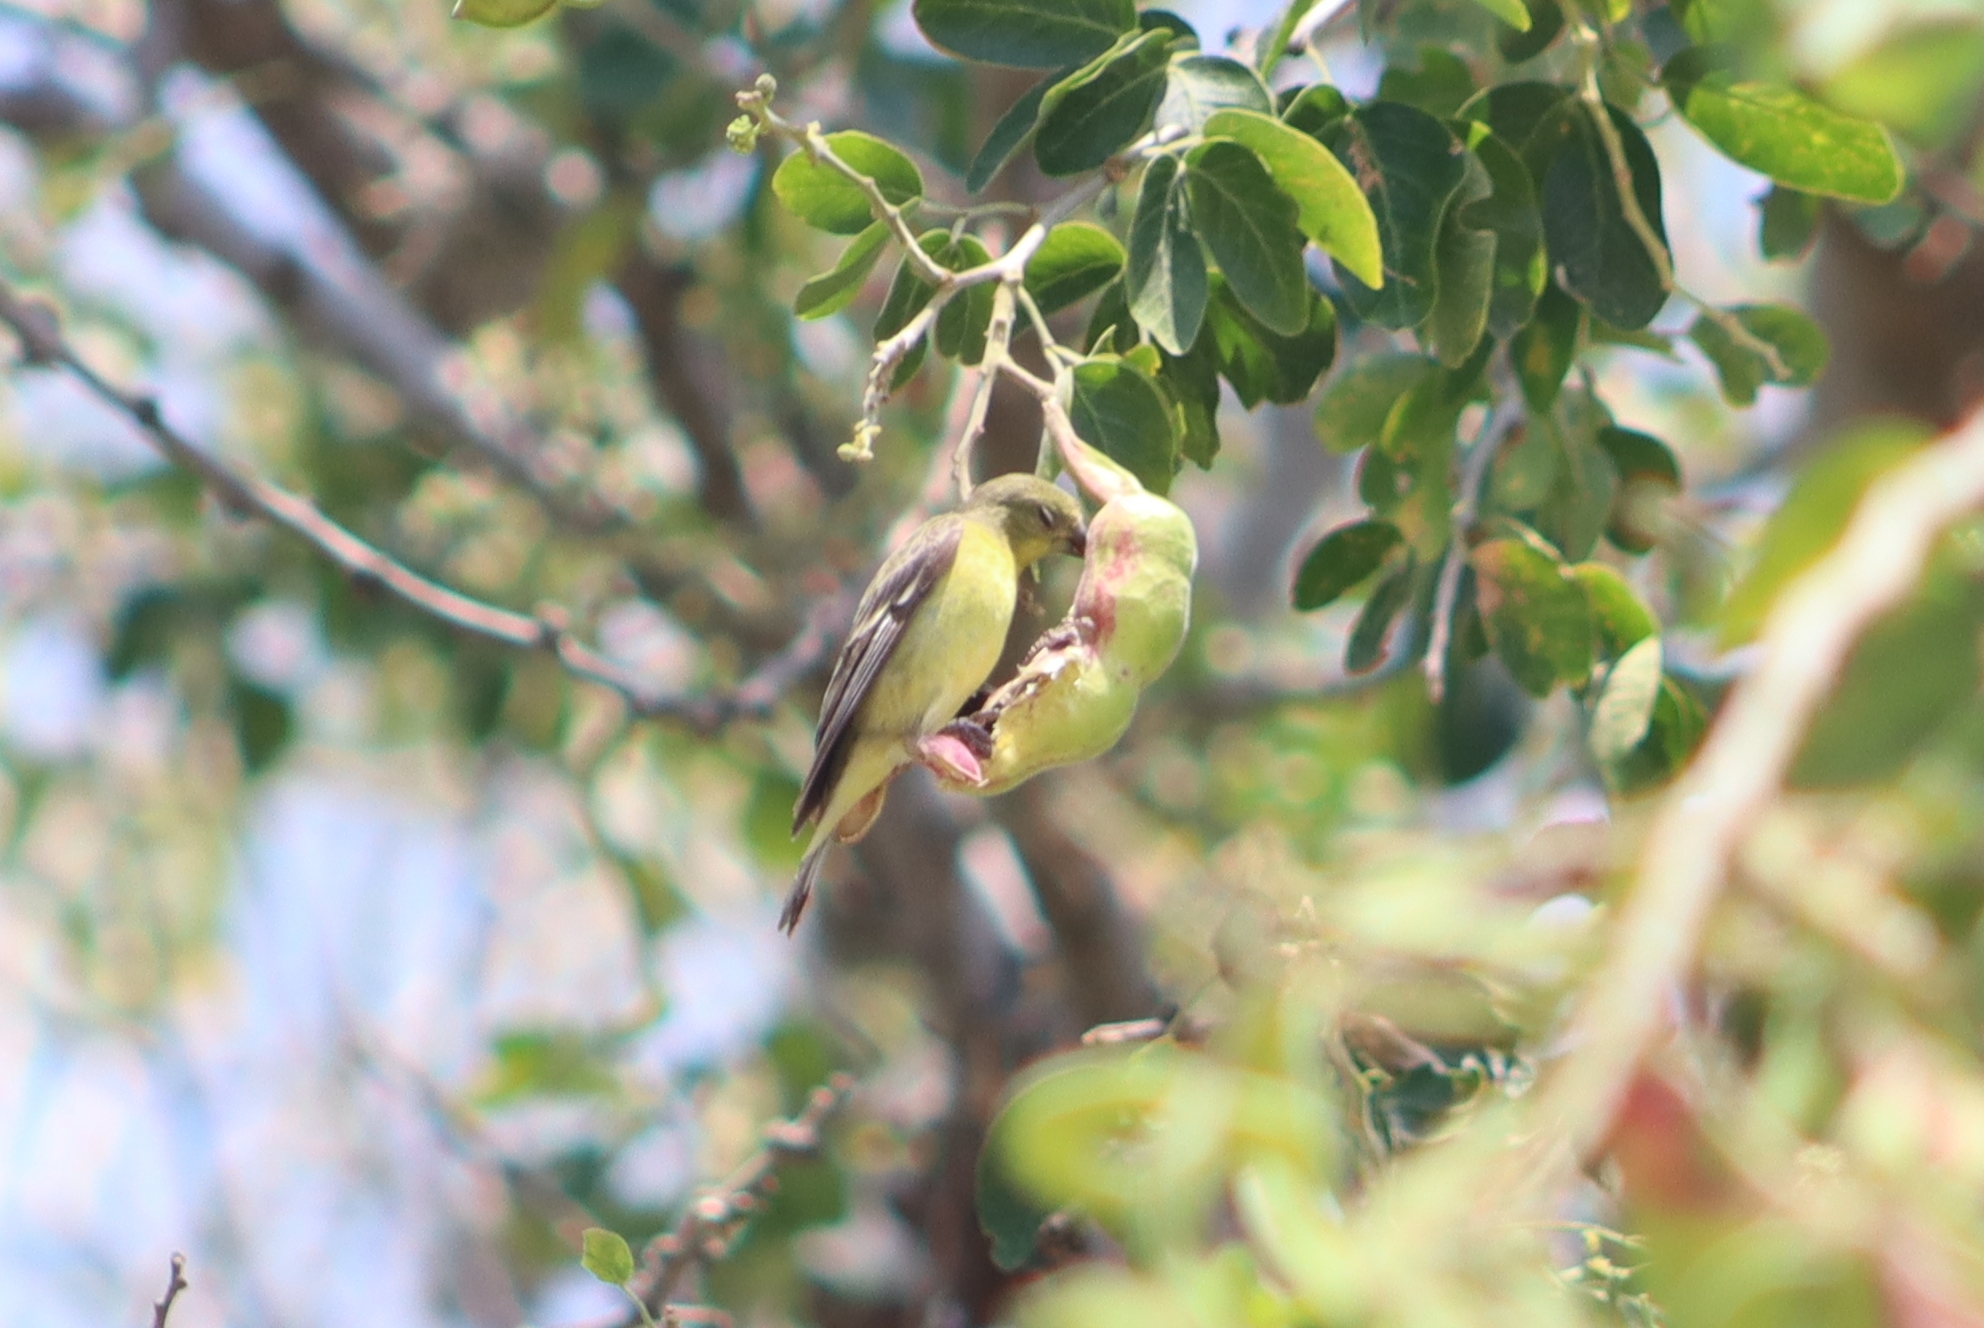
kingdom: Animalia
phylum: Chordata
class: Aves
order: Passeriformes
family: Fringillidae
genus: Spinus
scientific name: Spinus psaltria
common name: Lesser goldfinch
